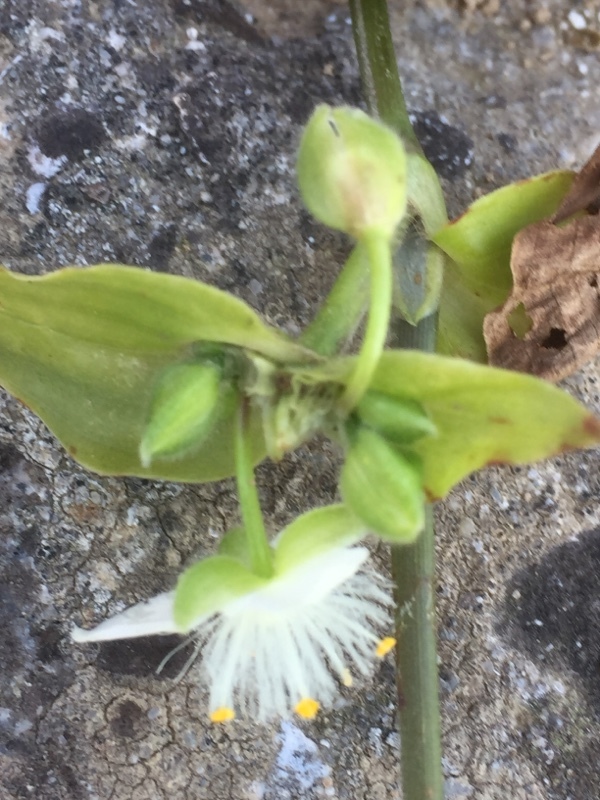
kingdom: Plantae
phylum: Tracheophyta
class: Liliopsida
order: Commelinales
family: Commelinaceae
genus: Tradescantia
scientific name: Tradescantia fluminensis
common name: Wandering-jew
